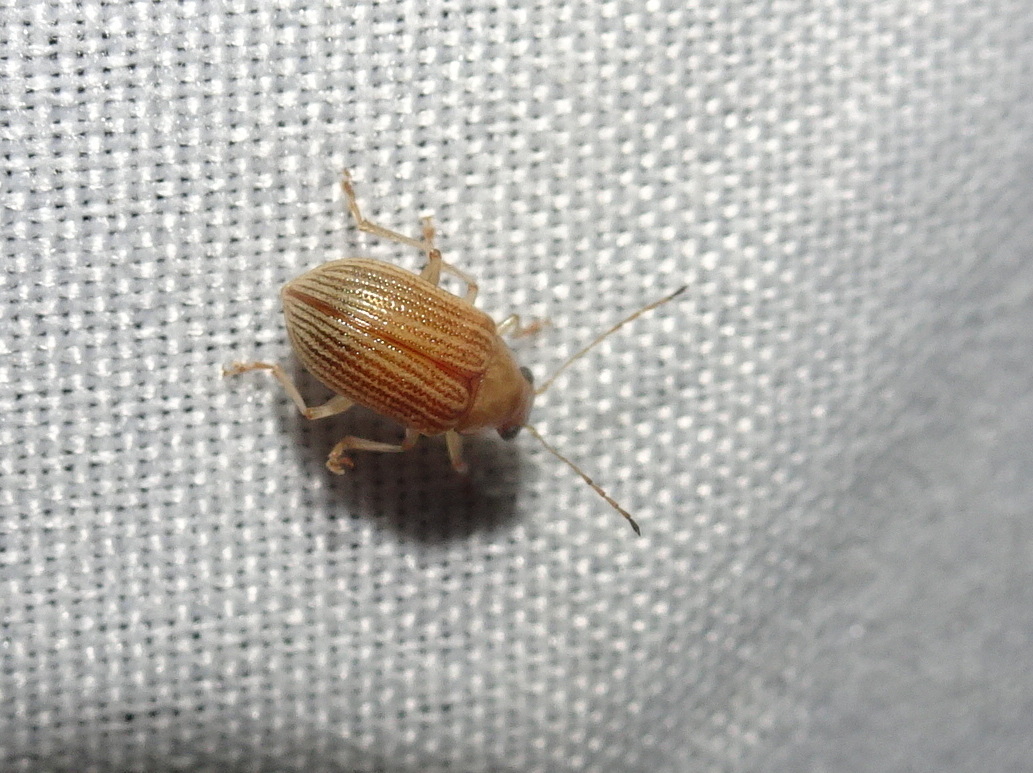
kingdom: Animalia
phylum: Arthropoda
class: Insecta
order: Coleoptera
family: Chrysomelidae
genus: Colaspis
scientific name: Colaspis brunnea
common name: Grape colaspis
